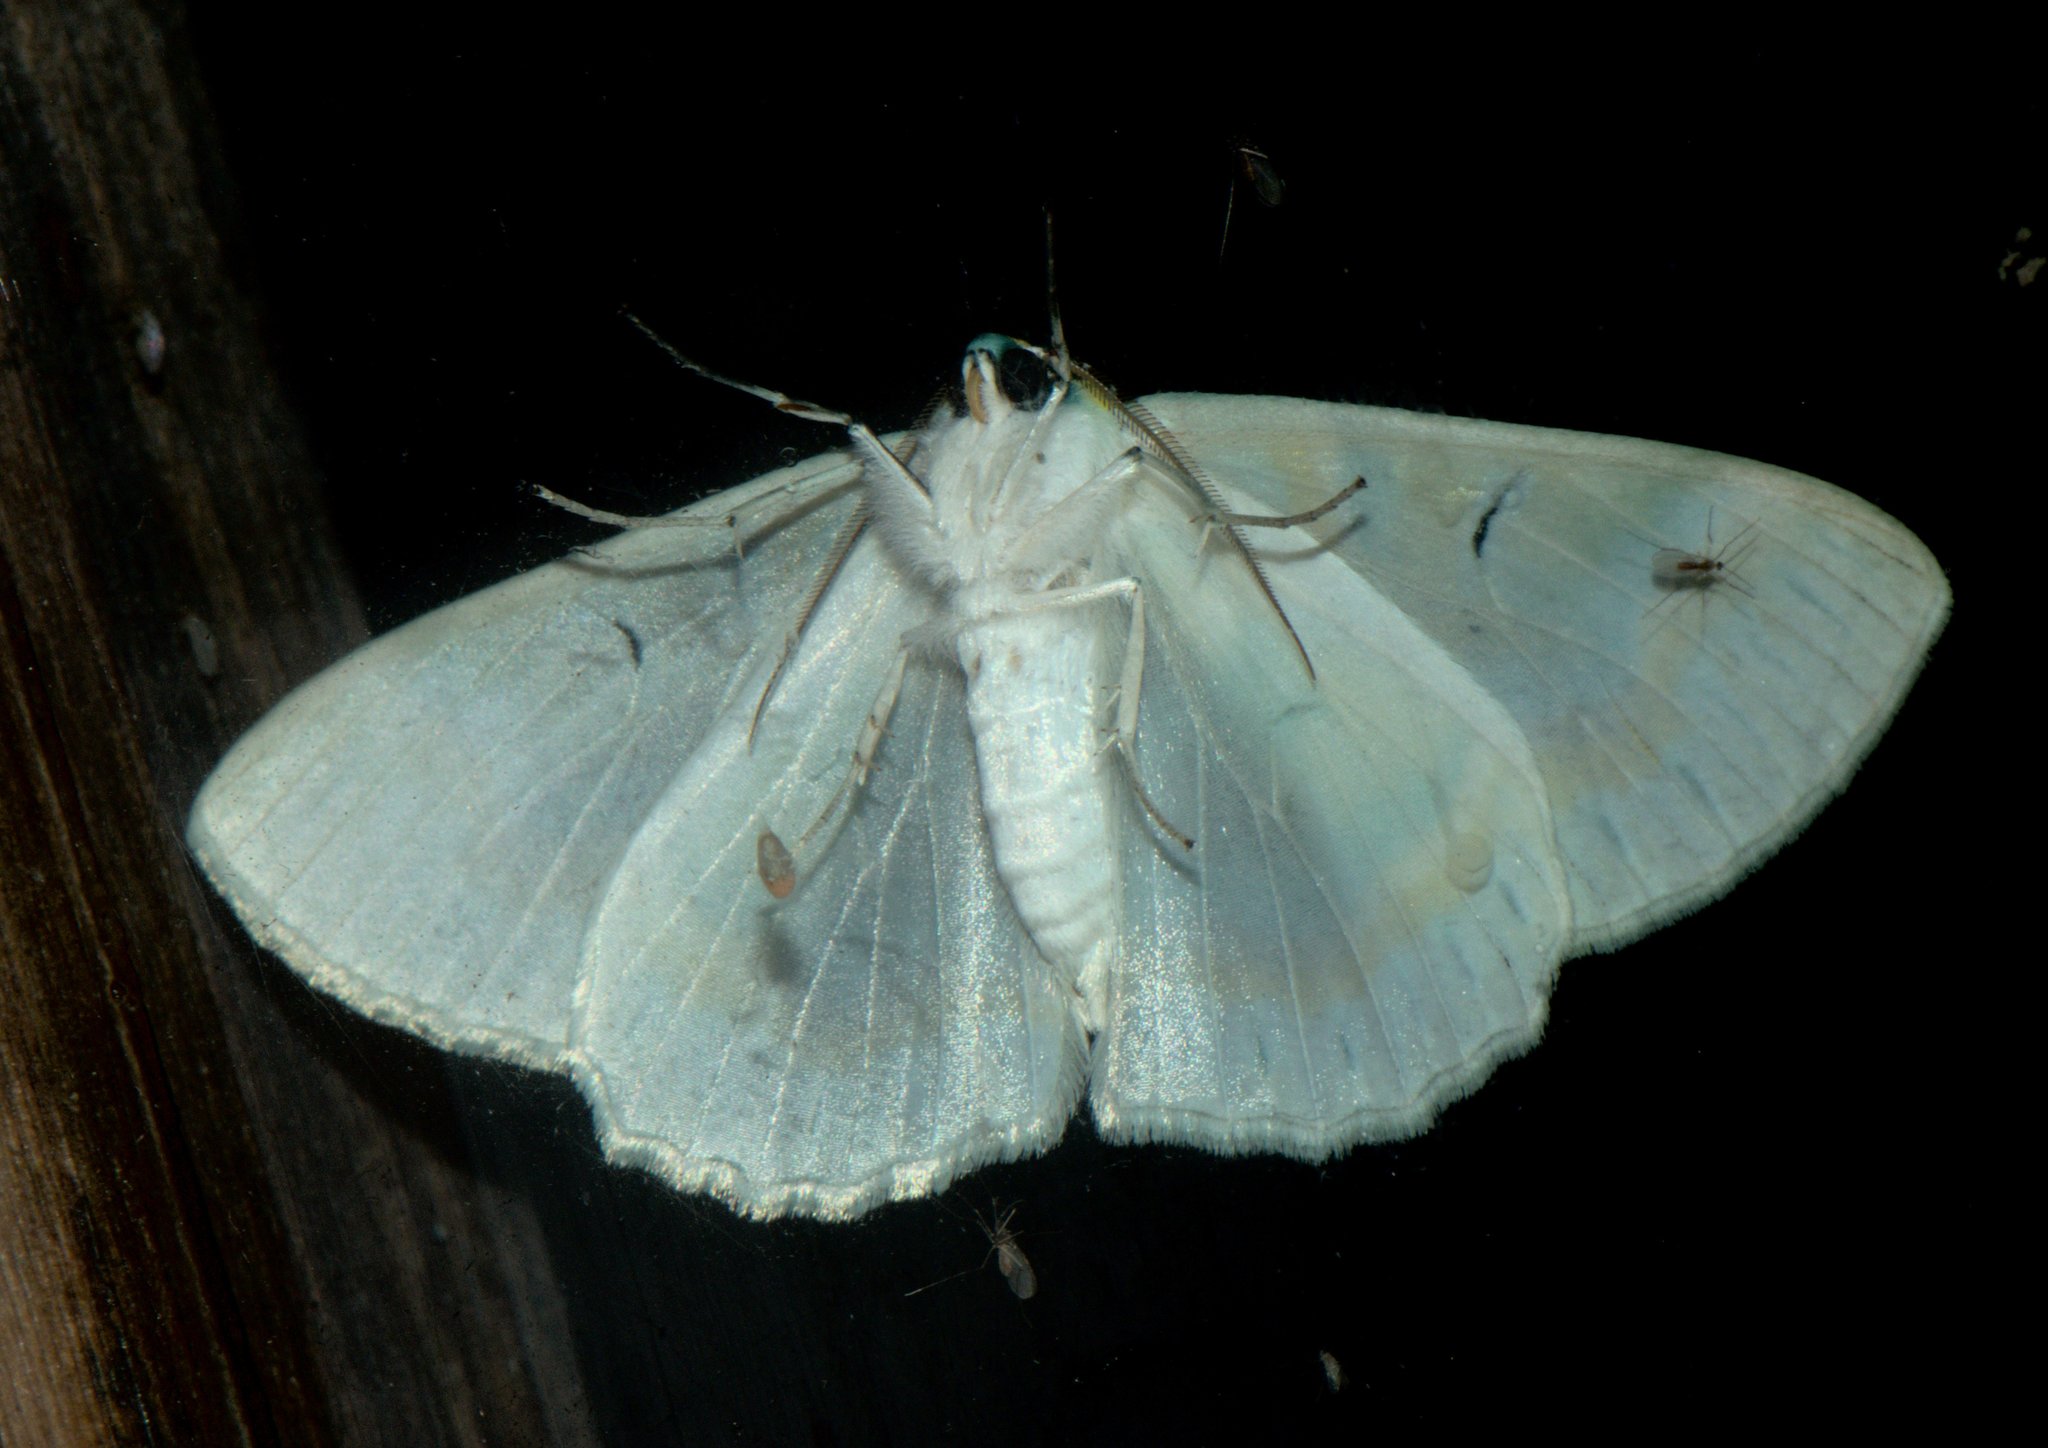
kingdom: Animalia
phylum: Arthropoda
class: Insecta
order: Lepidoptera
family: Geometridae
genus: Iotaphora
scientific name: Iotaphora iridicolor
